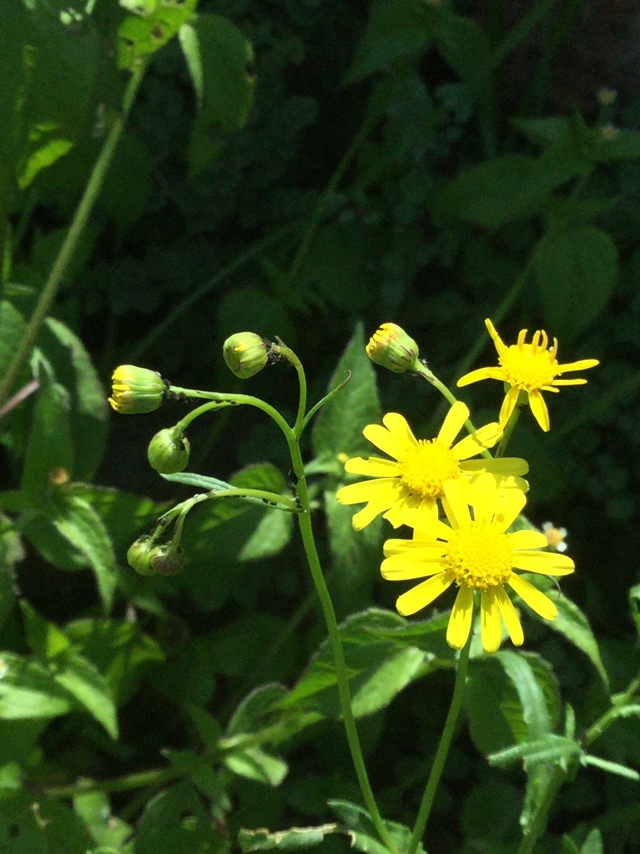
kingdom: Plantae
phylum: Tracheophyta
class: Magnoliopsida
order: Asterales
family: Asteraceae
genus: Senecio
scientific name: Senecio inaequidens
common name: Narrow-leaved ragwort
